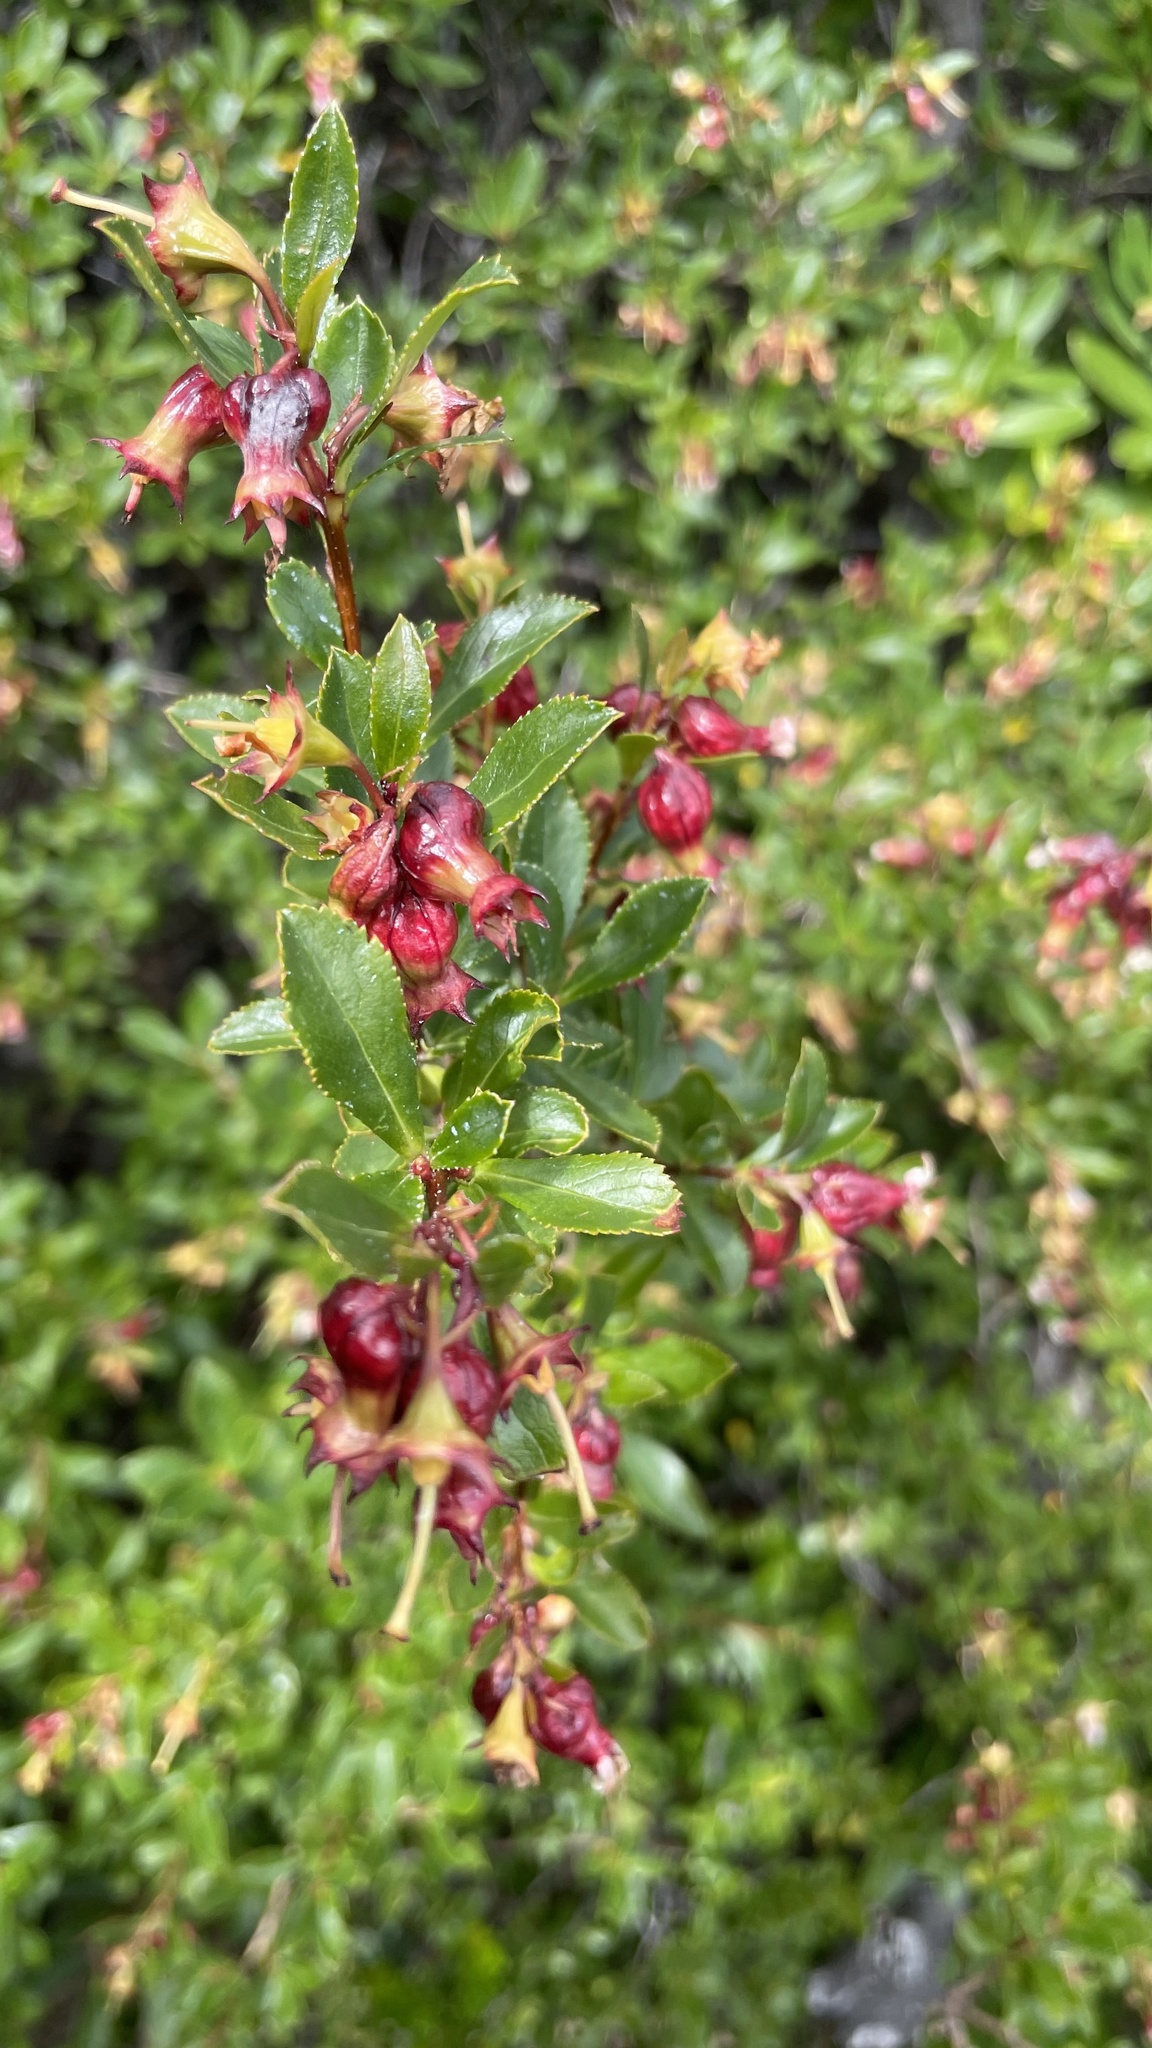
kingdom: Plantae
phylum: Tracheophyta
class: Magnoliopsida
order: Escalloniales
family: Escalloniaceae
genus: Escallonia
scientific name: Escallonia rubra
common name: Redclaws
